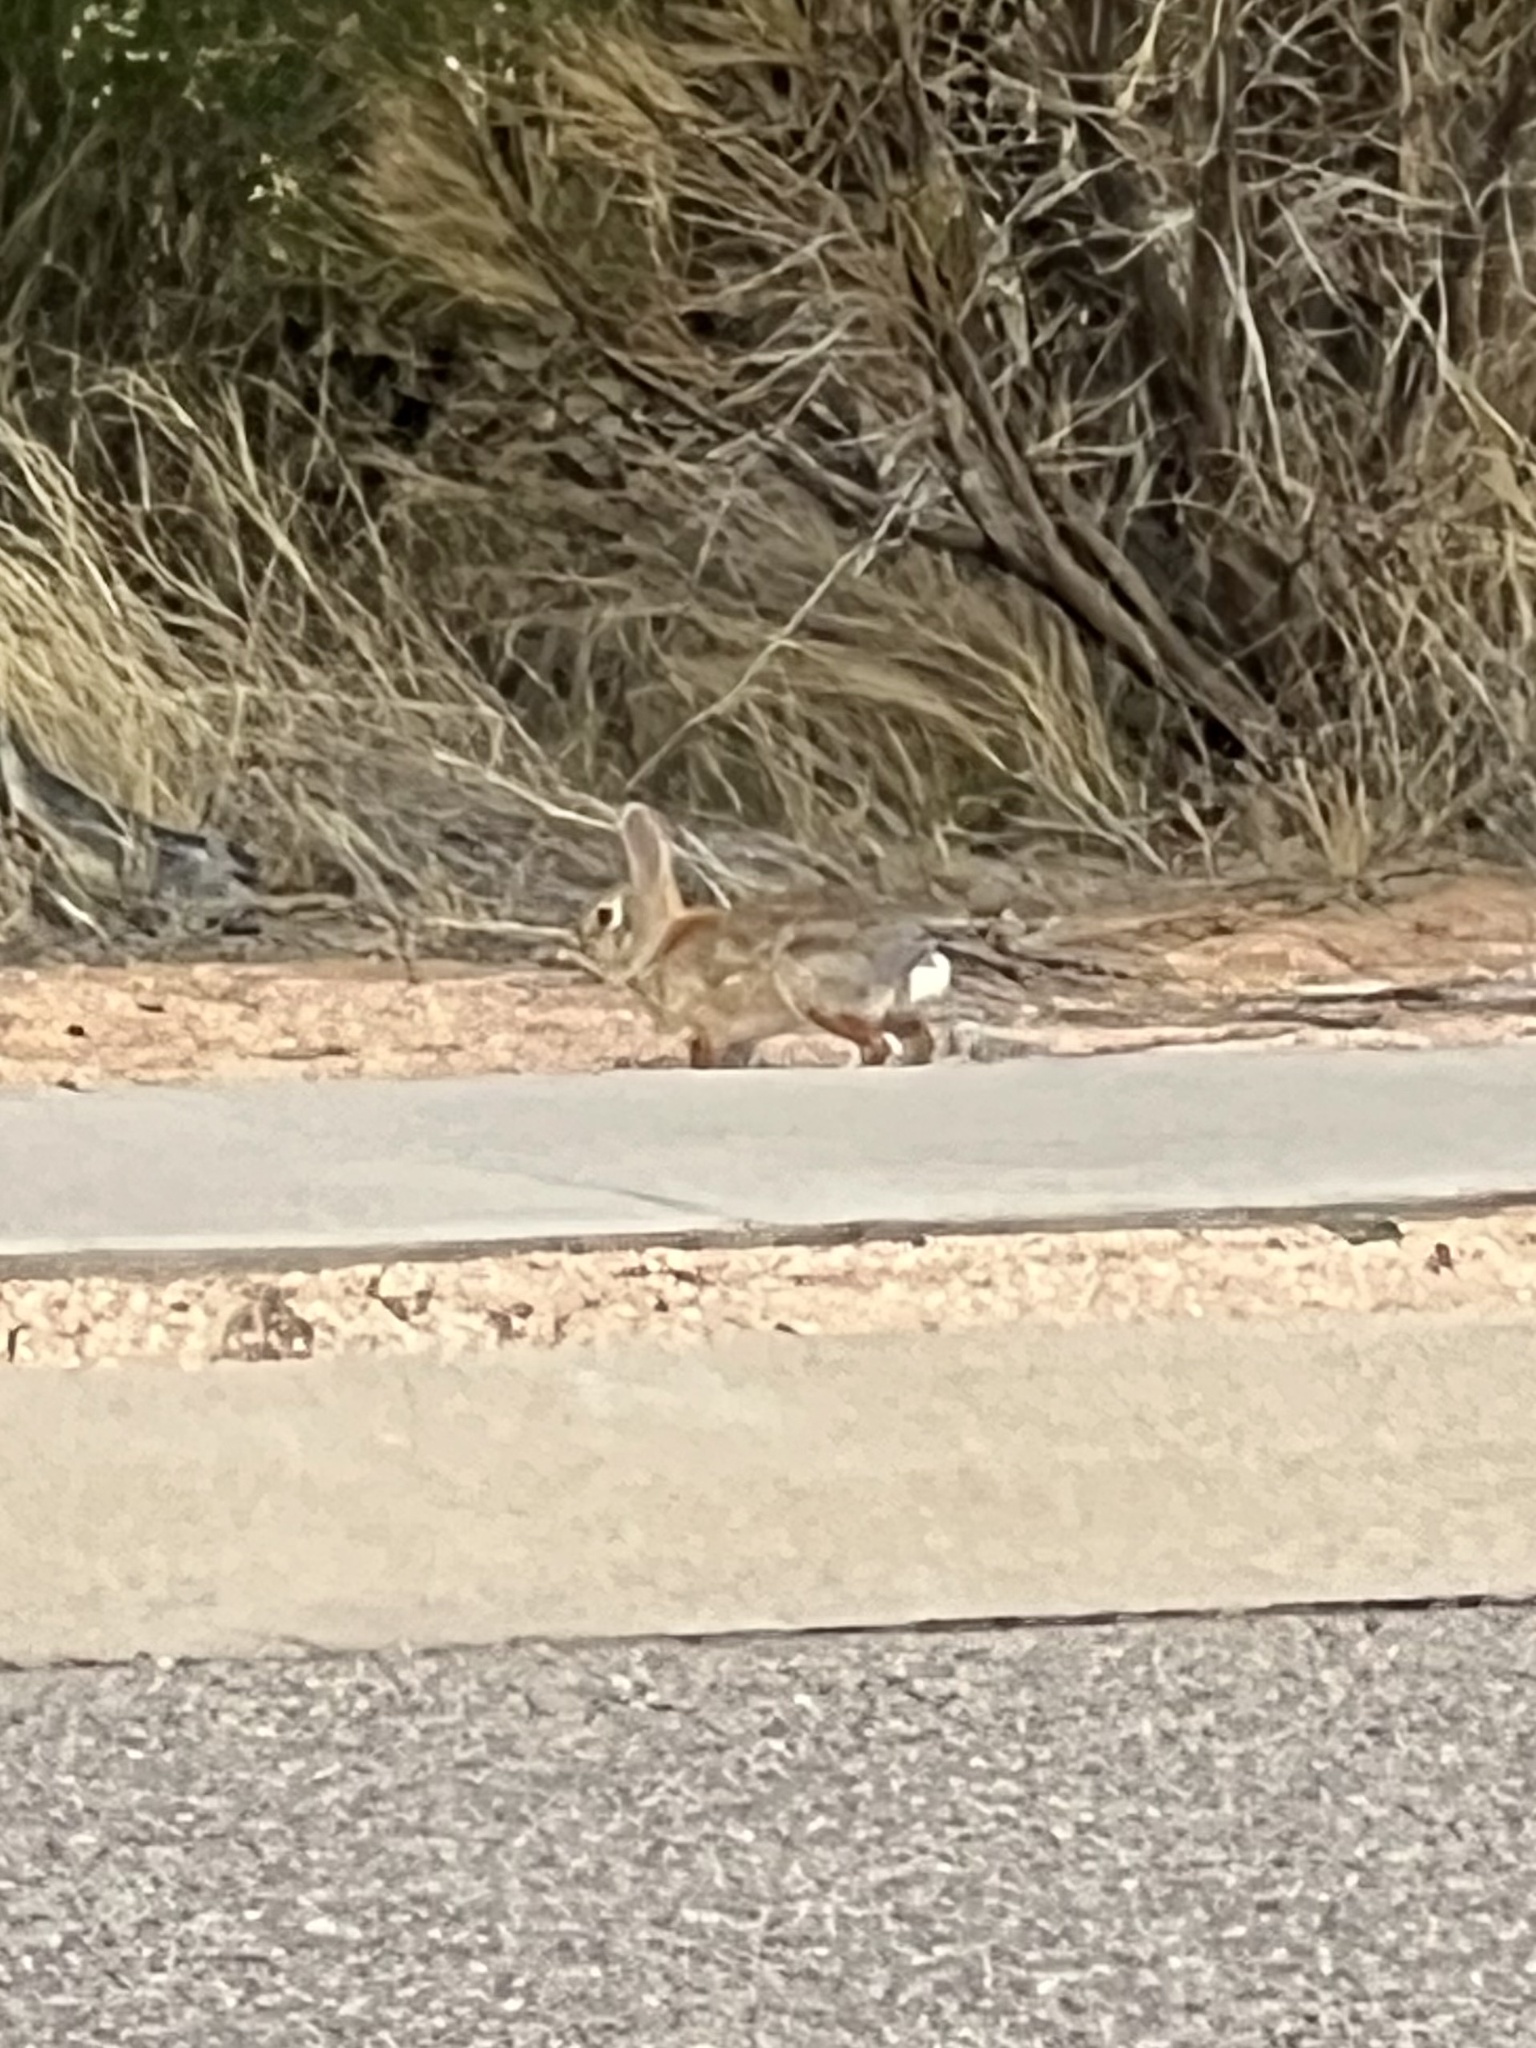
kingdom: Animalia
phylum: Chordata
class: Mammalia
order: Lagomorpha
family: Leporidae
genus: Sylvilagus
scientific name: Sylvilagus audubonii
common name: Desert cottontail
